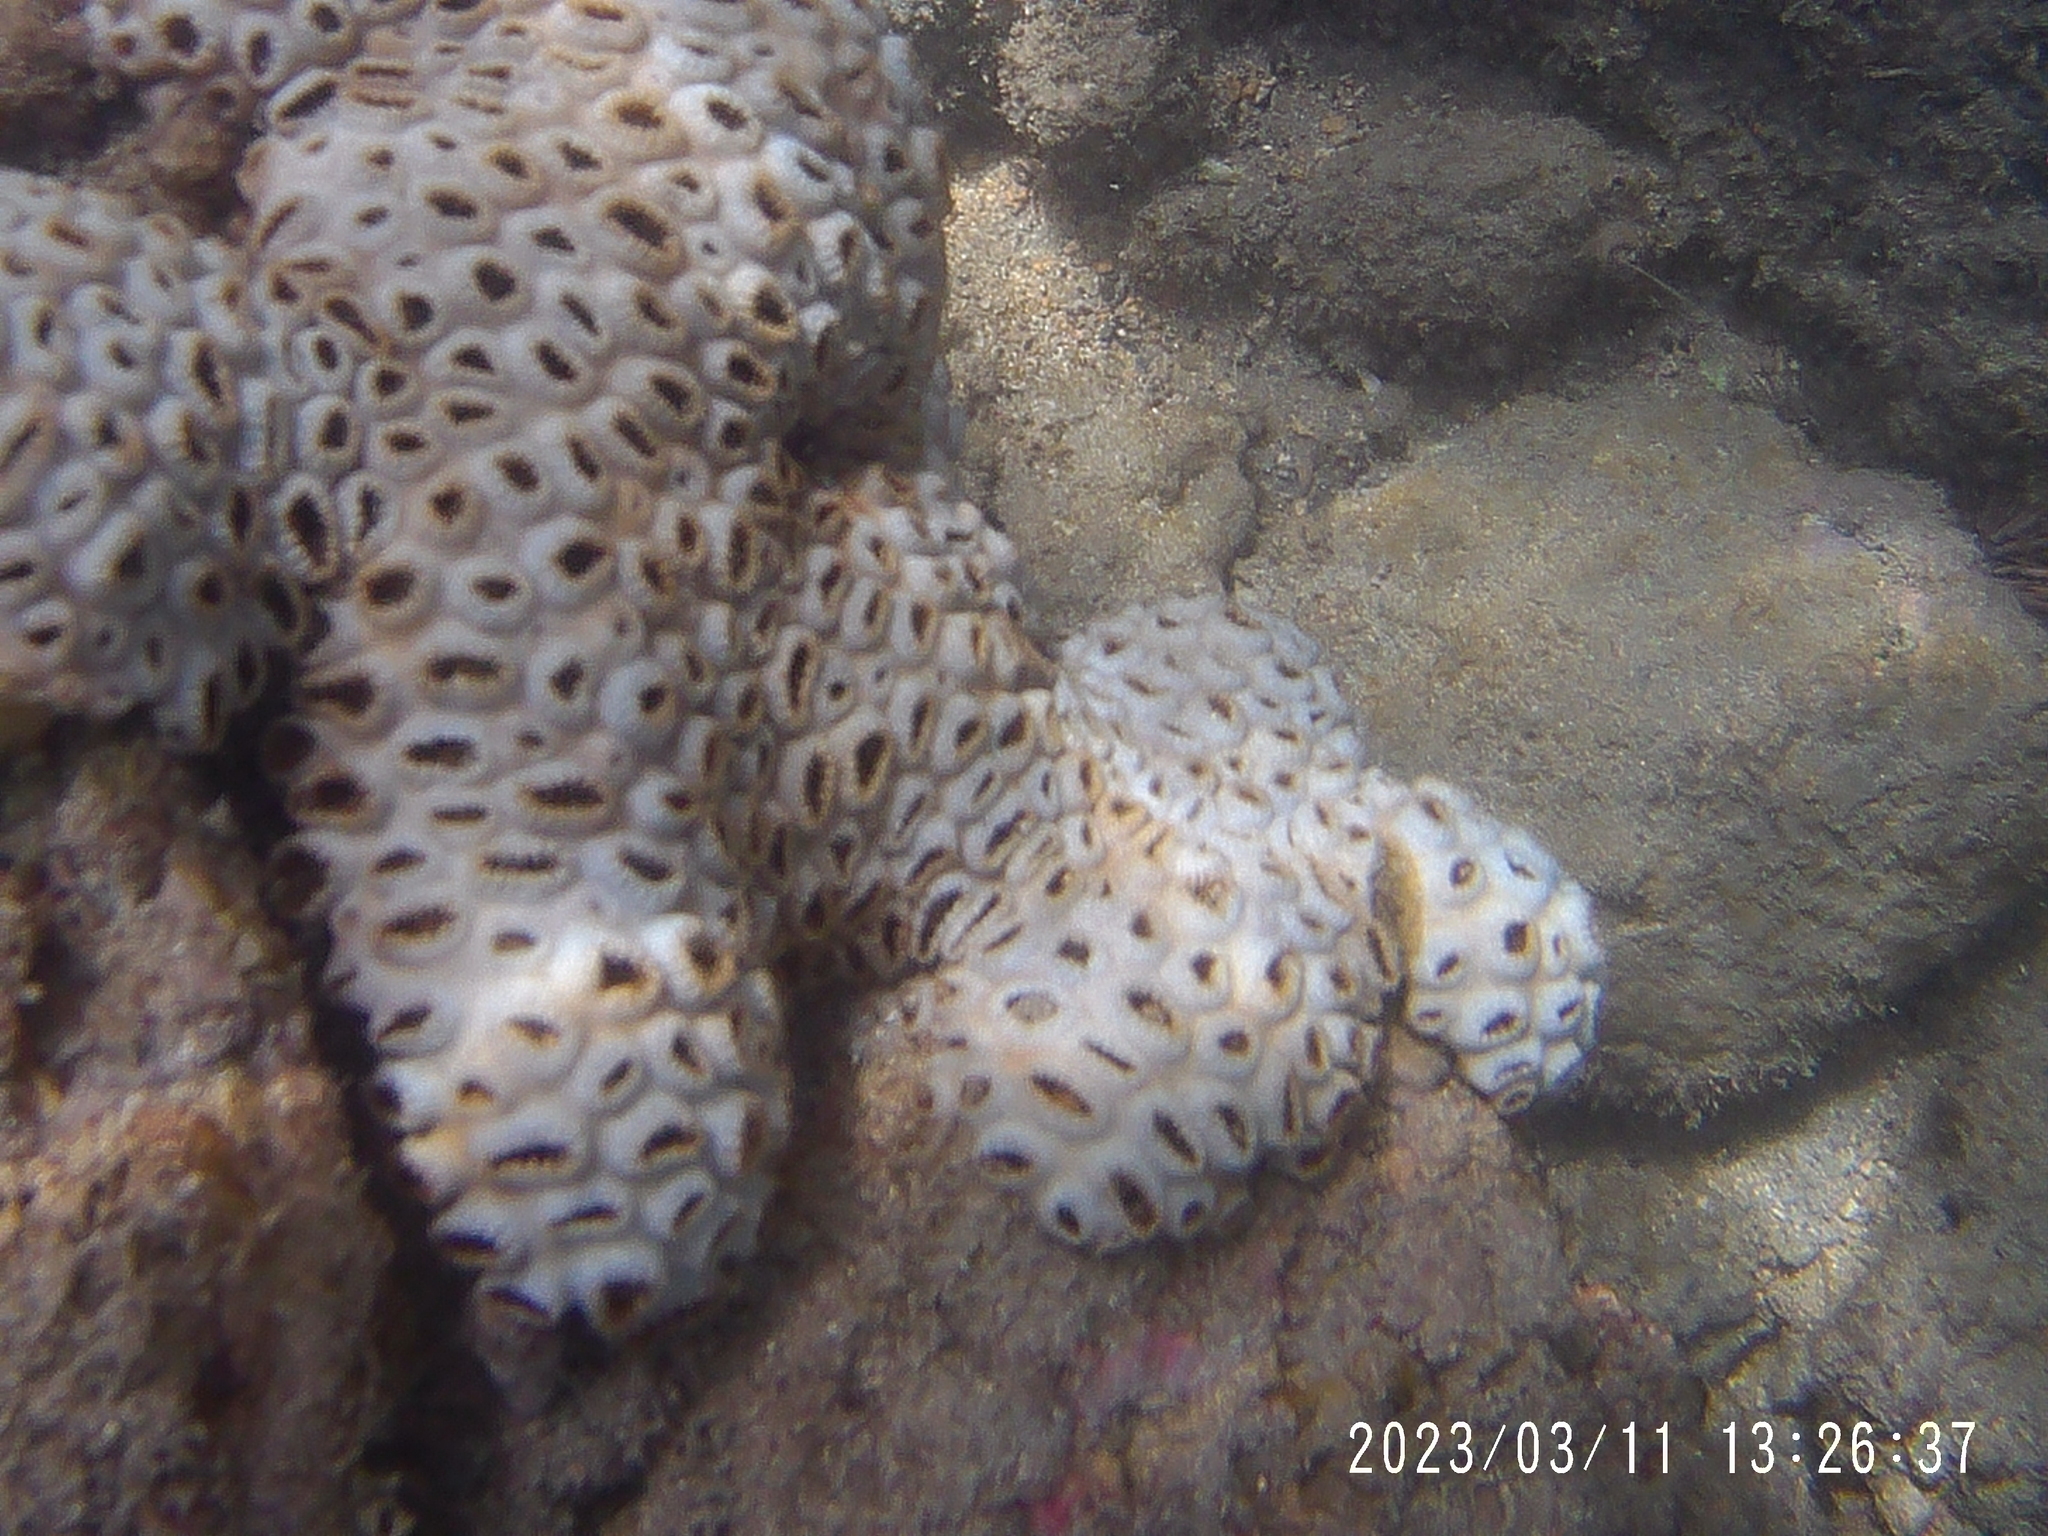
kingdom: Animalia
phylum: Cnidaria
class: Anthozoa
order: Zoantharia
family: Sphenopidae
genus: Palythoa
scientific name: Palythoa tuberculosa
